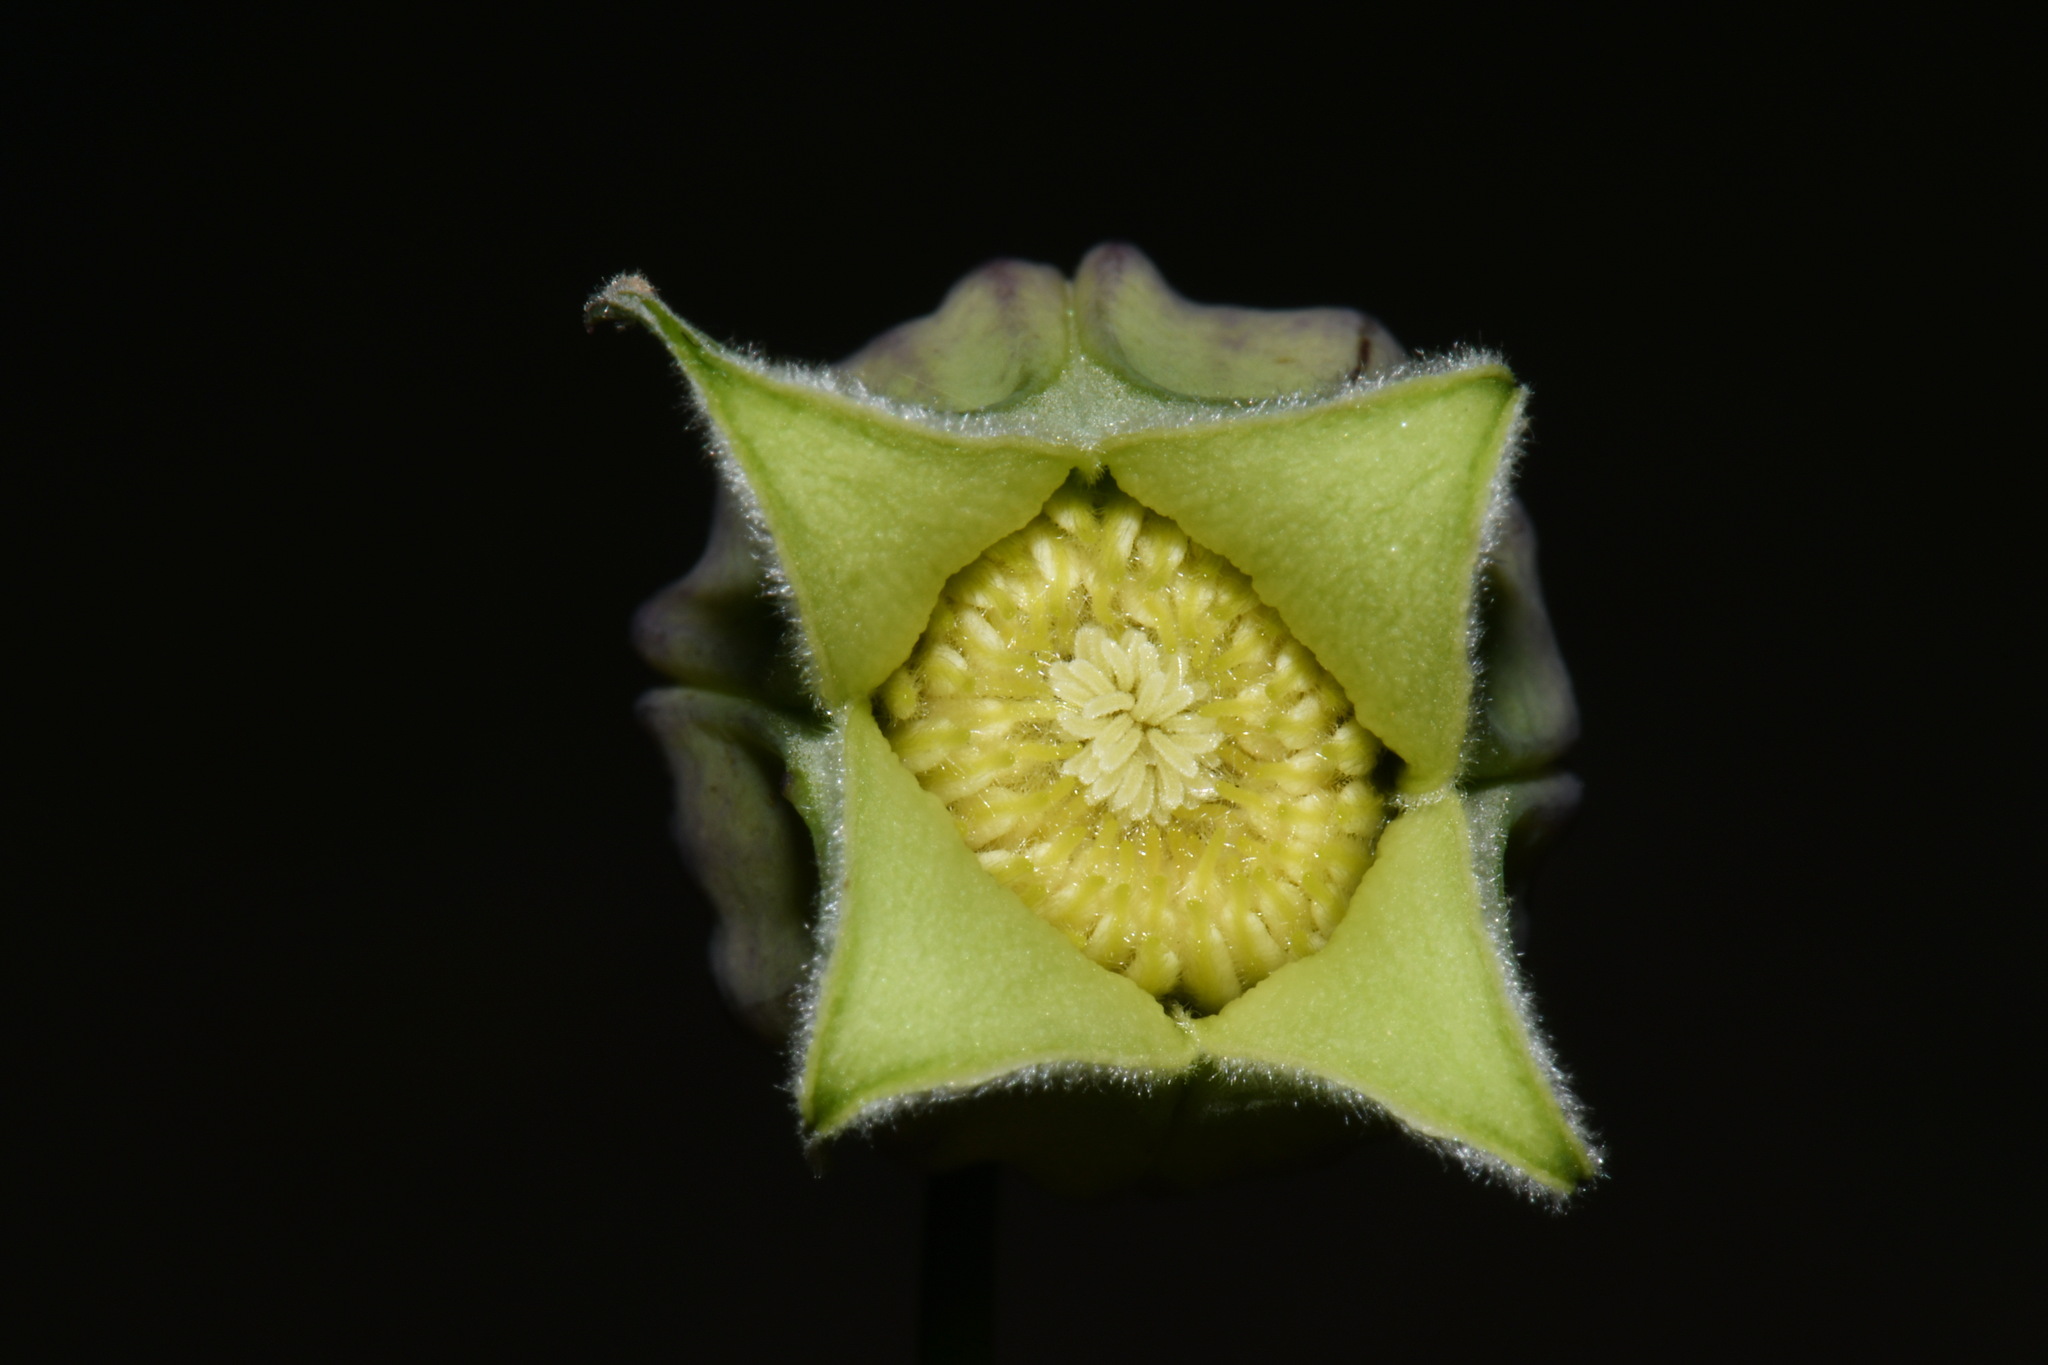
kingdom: Plantae
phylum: Tracheophyta
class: Magnoliopsida
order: Ranunculales
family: Ranunculaceae
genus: Clematis
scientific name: Clematis versicolor
